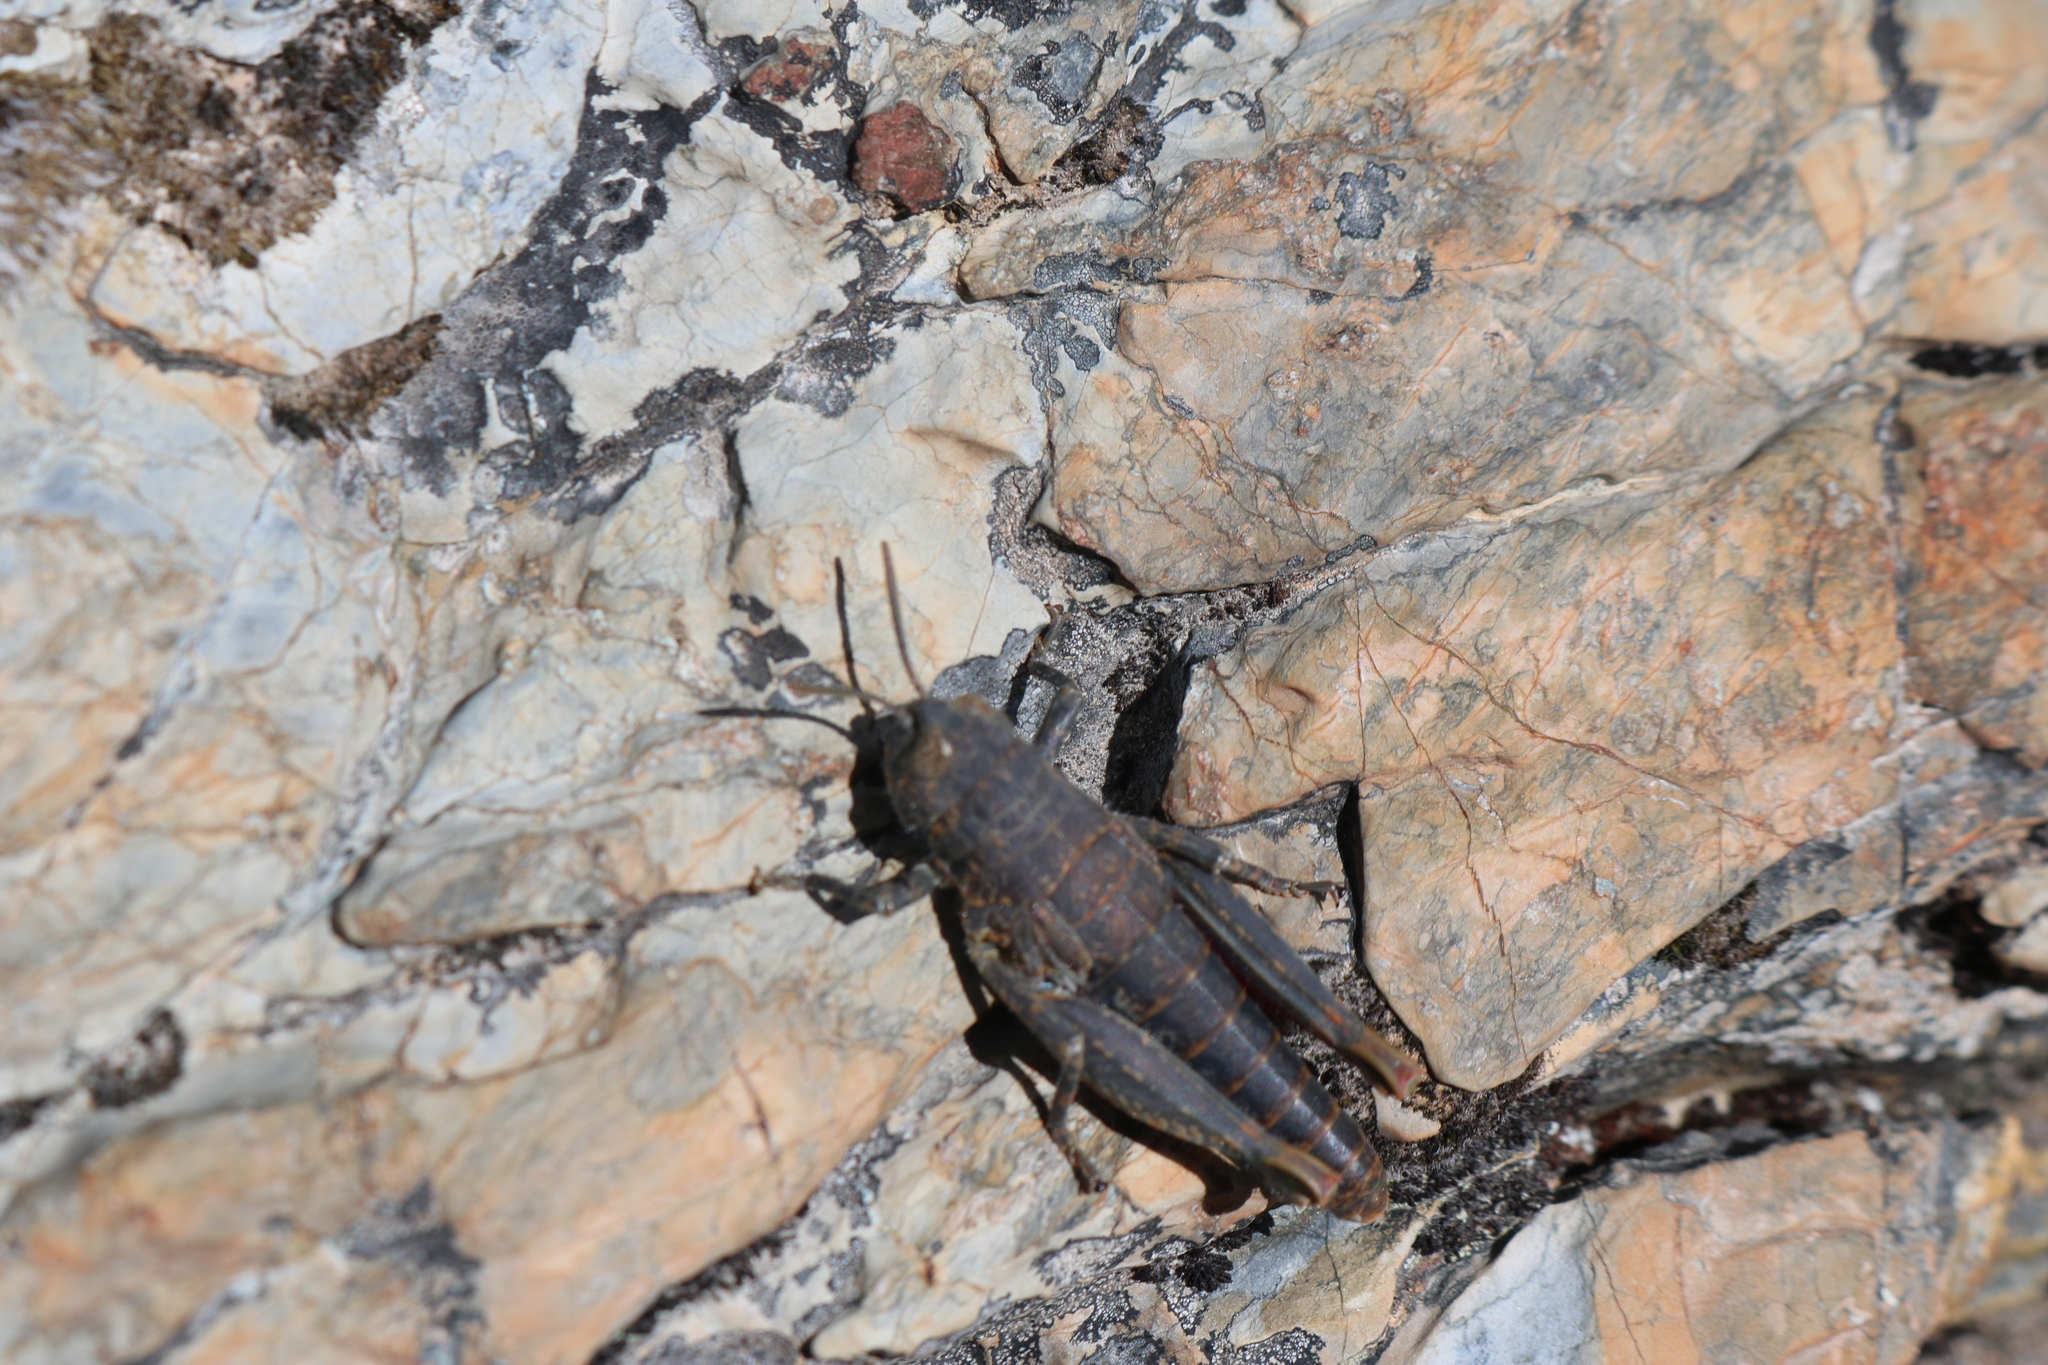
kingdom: Animalia
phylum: Arthropoda
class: Insecta
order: Orthoptera
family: Acrididae
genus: Sigaus
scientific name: Sigaus
